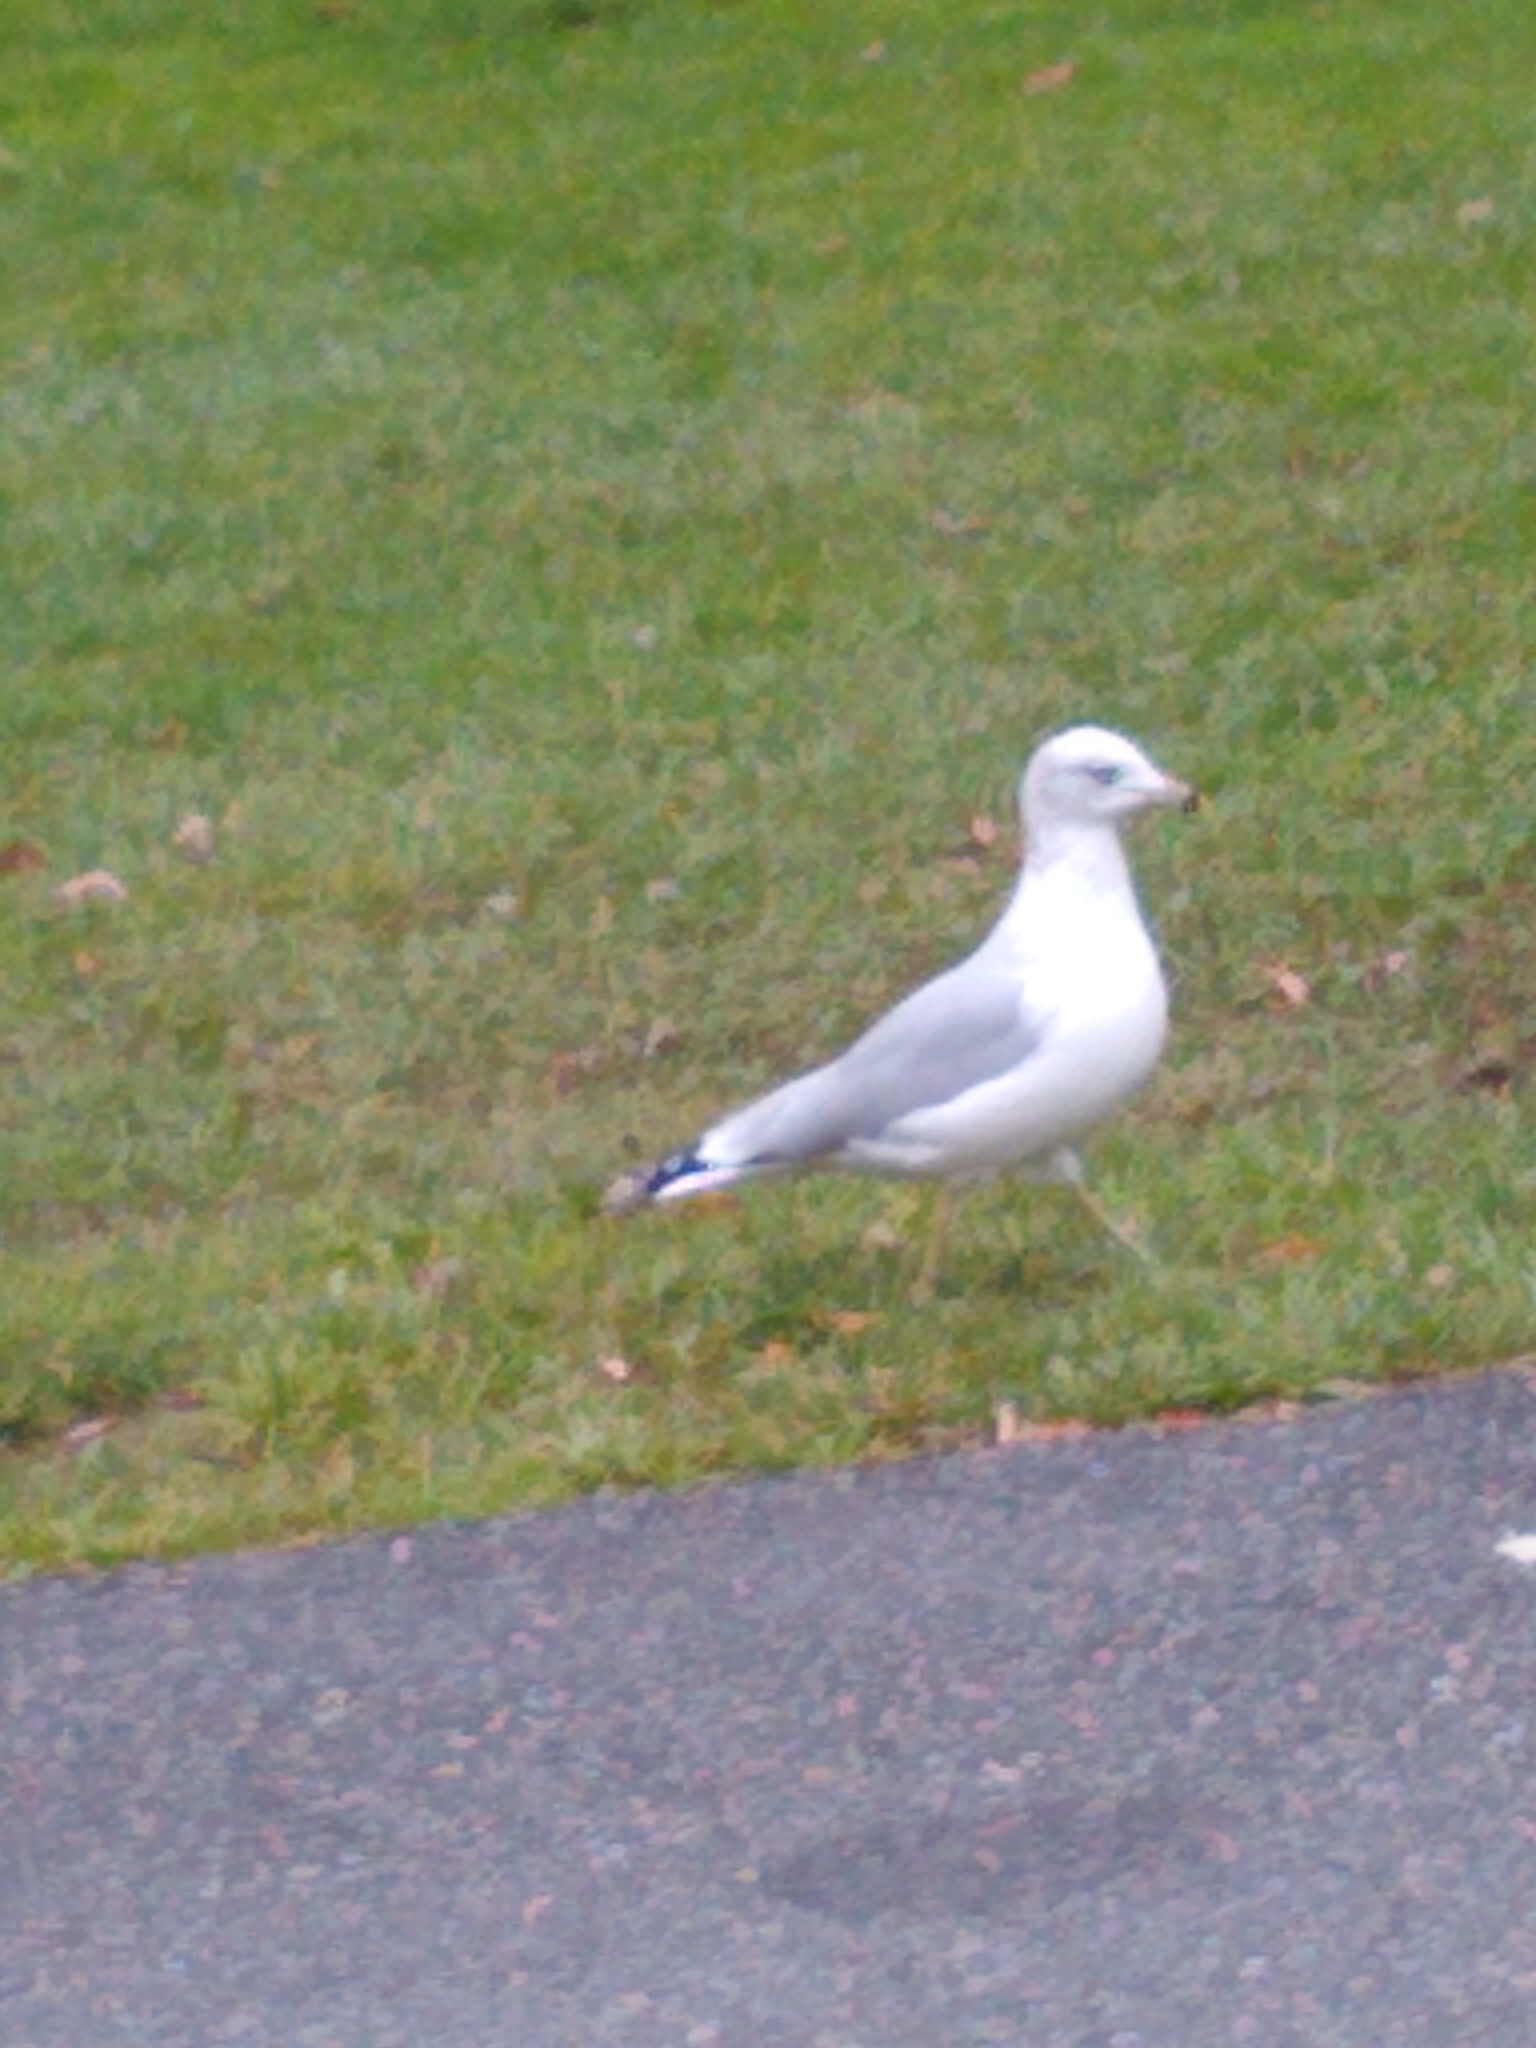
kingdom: Animalia
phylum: Chordata
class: Aves
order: Charadriiformes
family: Laridae
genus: Larus
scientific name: Larus delawarensis
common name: Ring-billed gull
